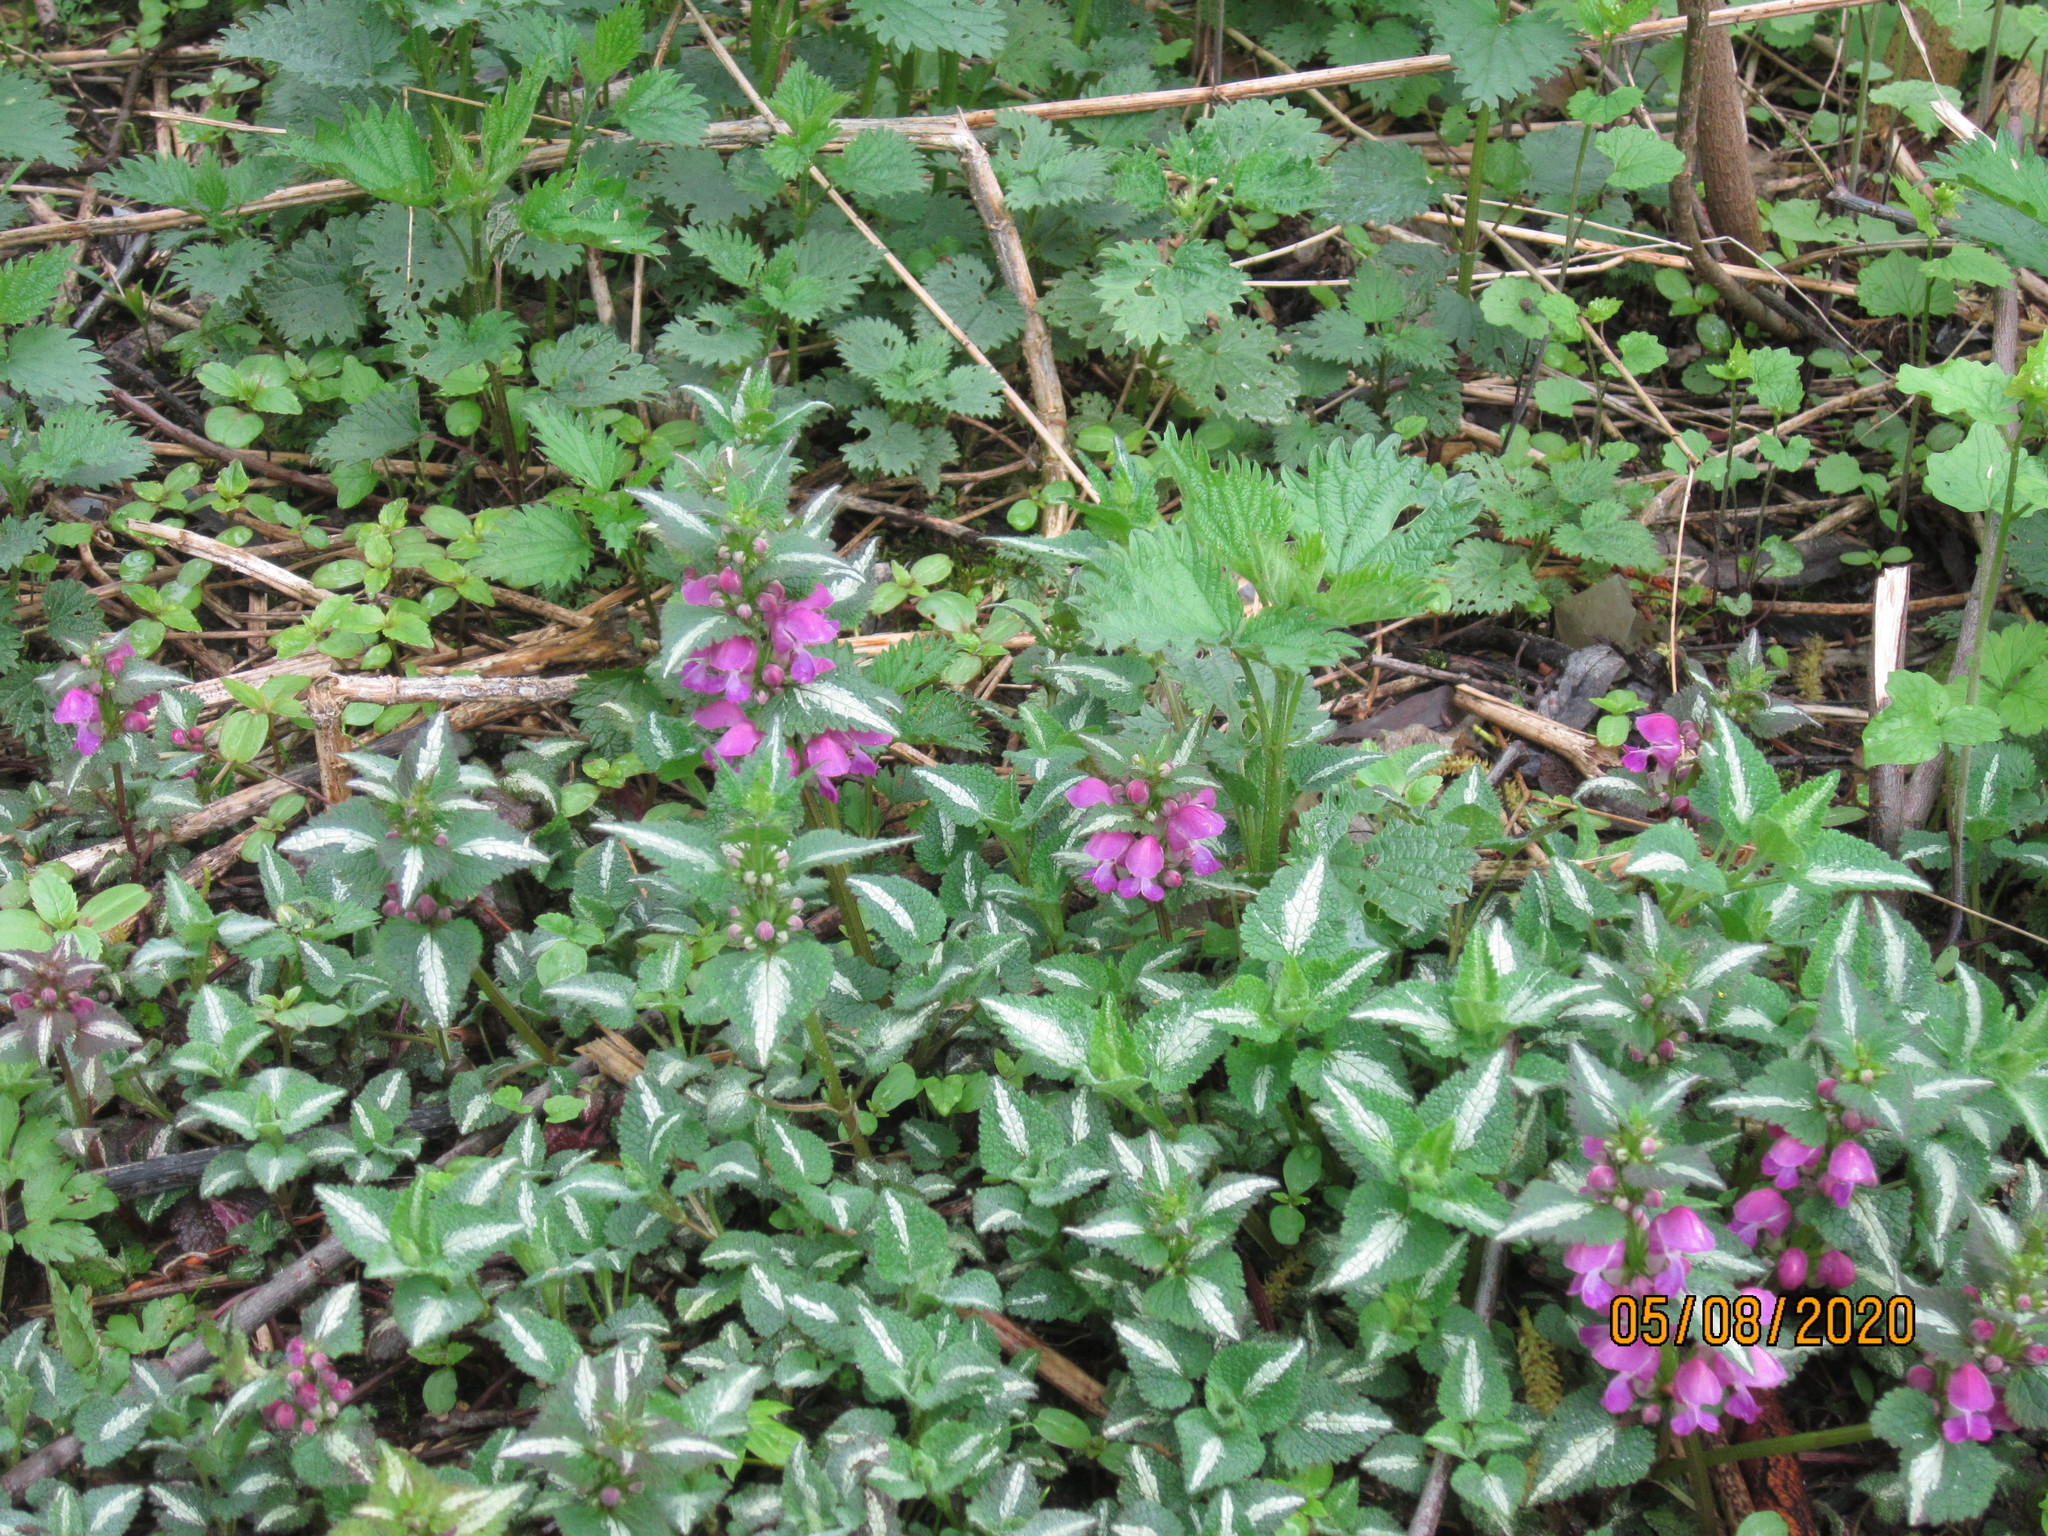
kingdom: Plantae
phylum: Tracheophyta
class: Magnoliopsida
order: Lamiales
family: Lamiaceae
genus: Lamium
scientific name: Lamium maculatum
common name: Spotted dead-nettle
